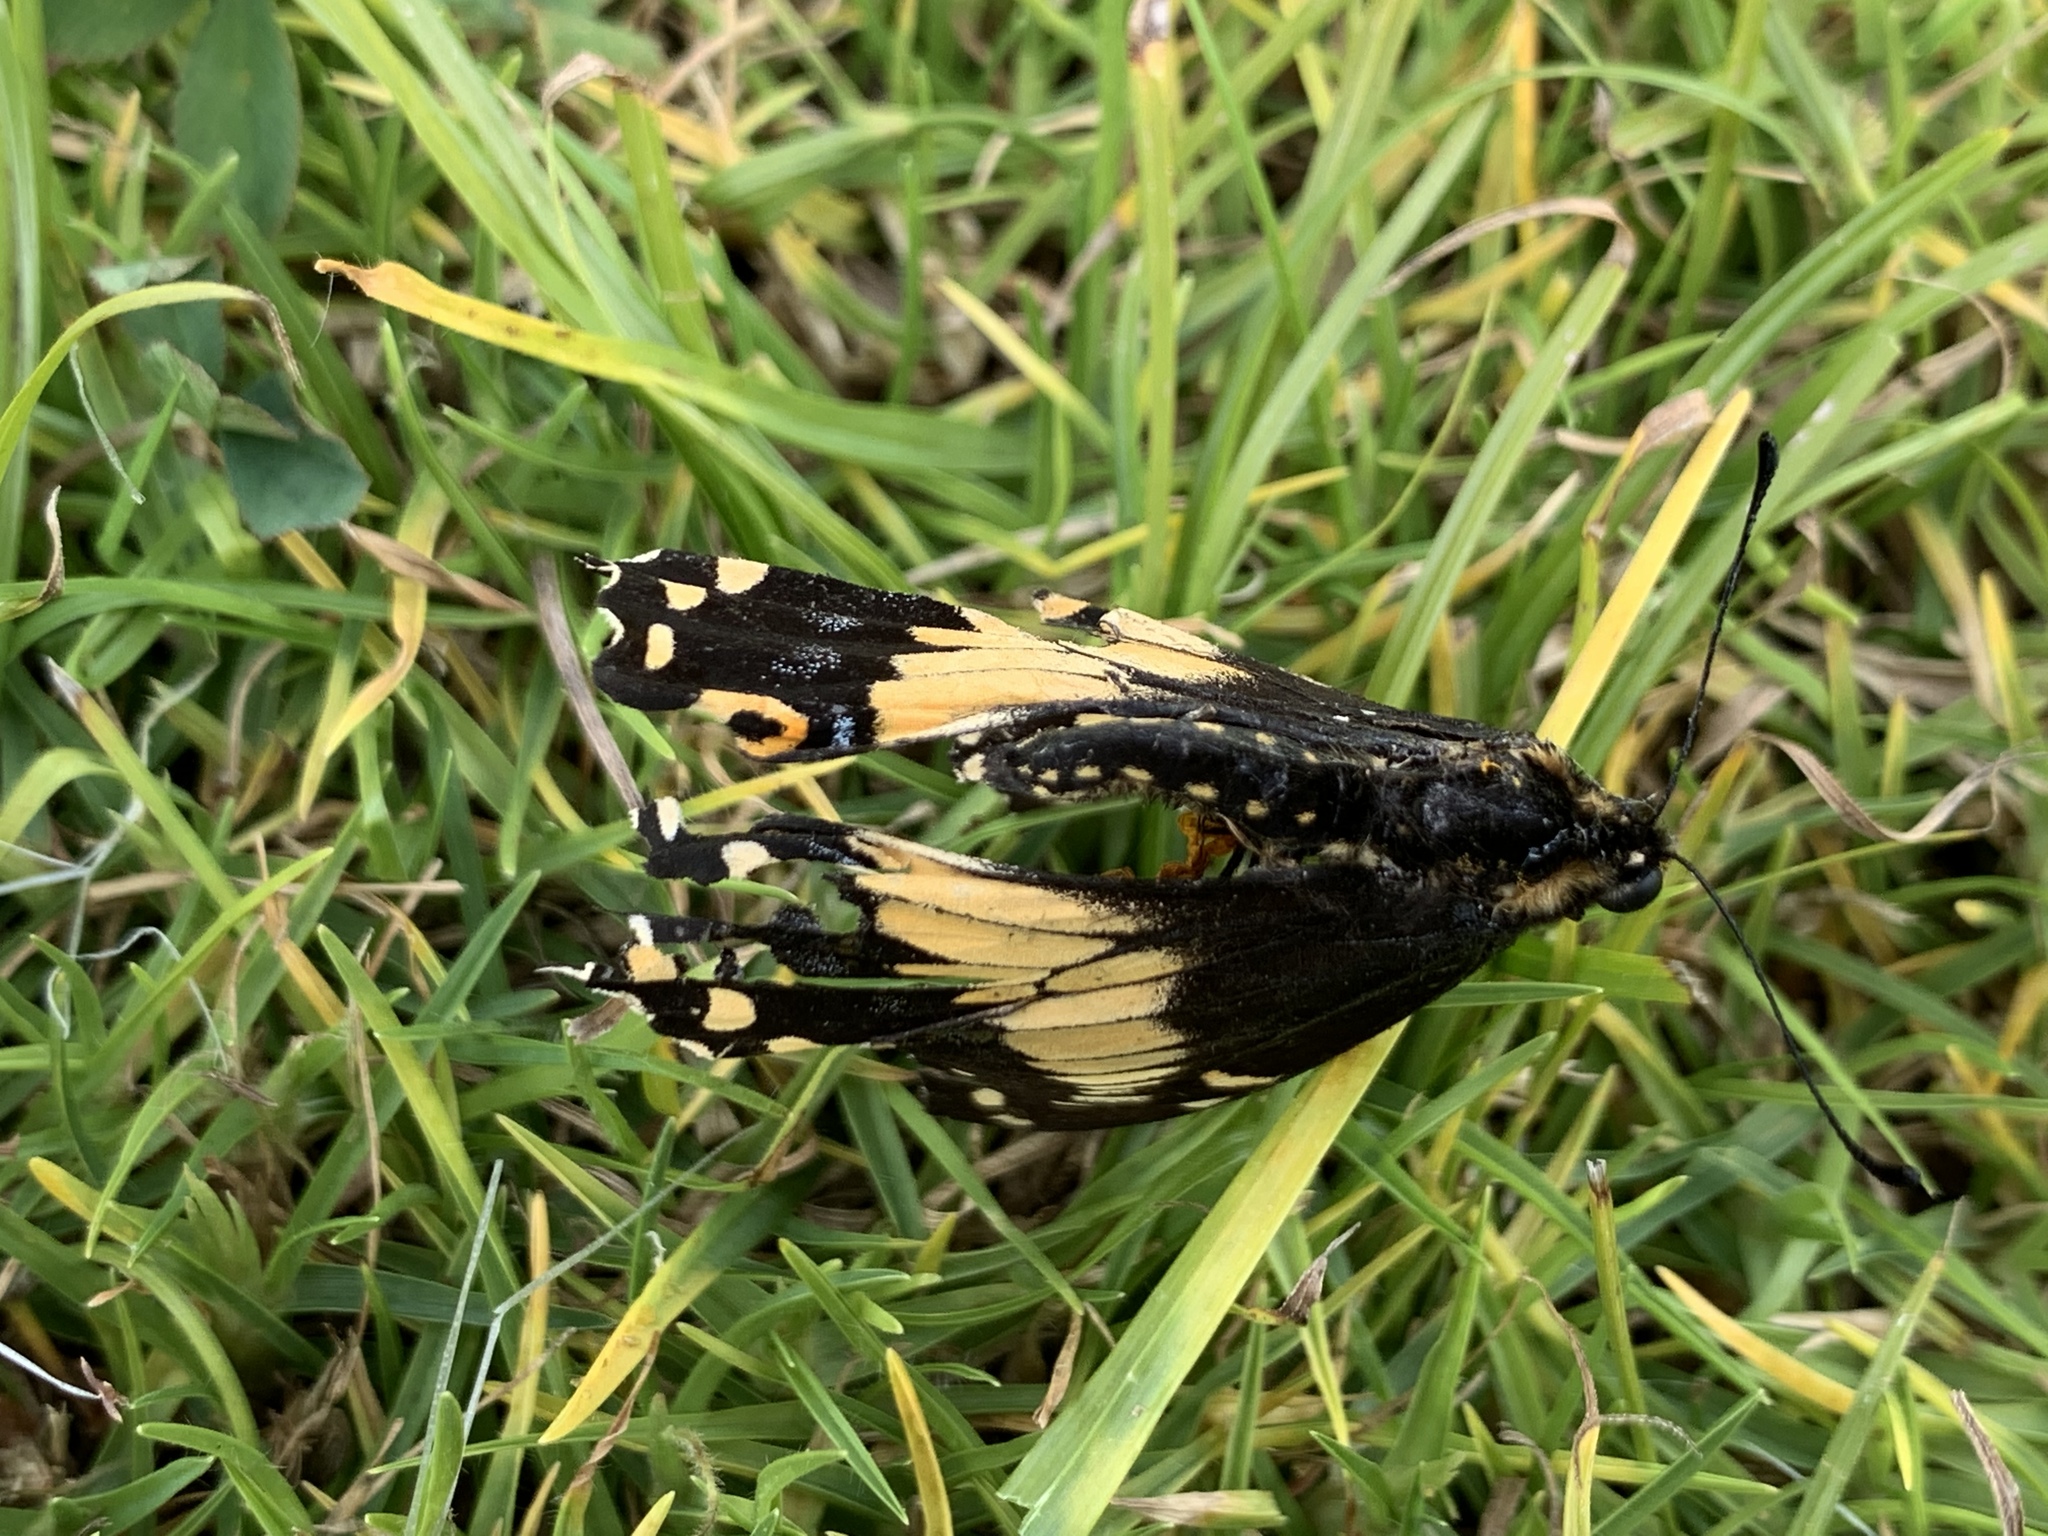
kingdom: Animalia
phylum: Arthropoda
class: Insecta
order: Lepidoptera
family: Papilionidae
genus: Papilio
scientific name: Papilio polyxenes
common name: Black swallowtail
